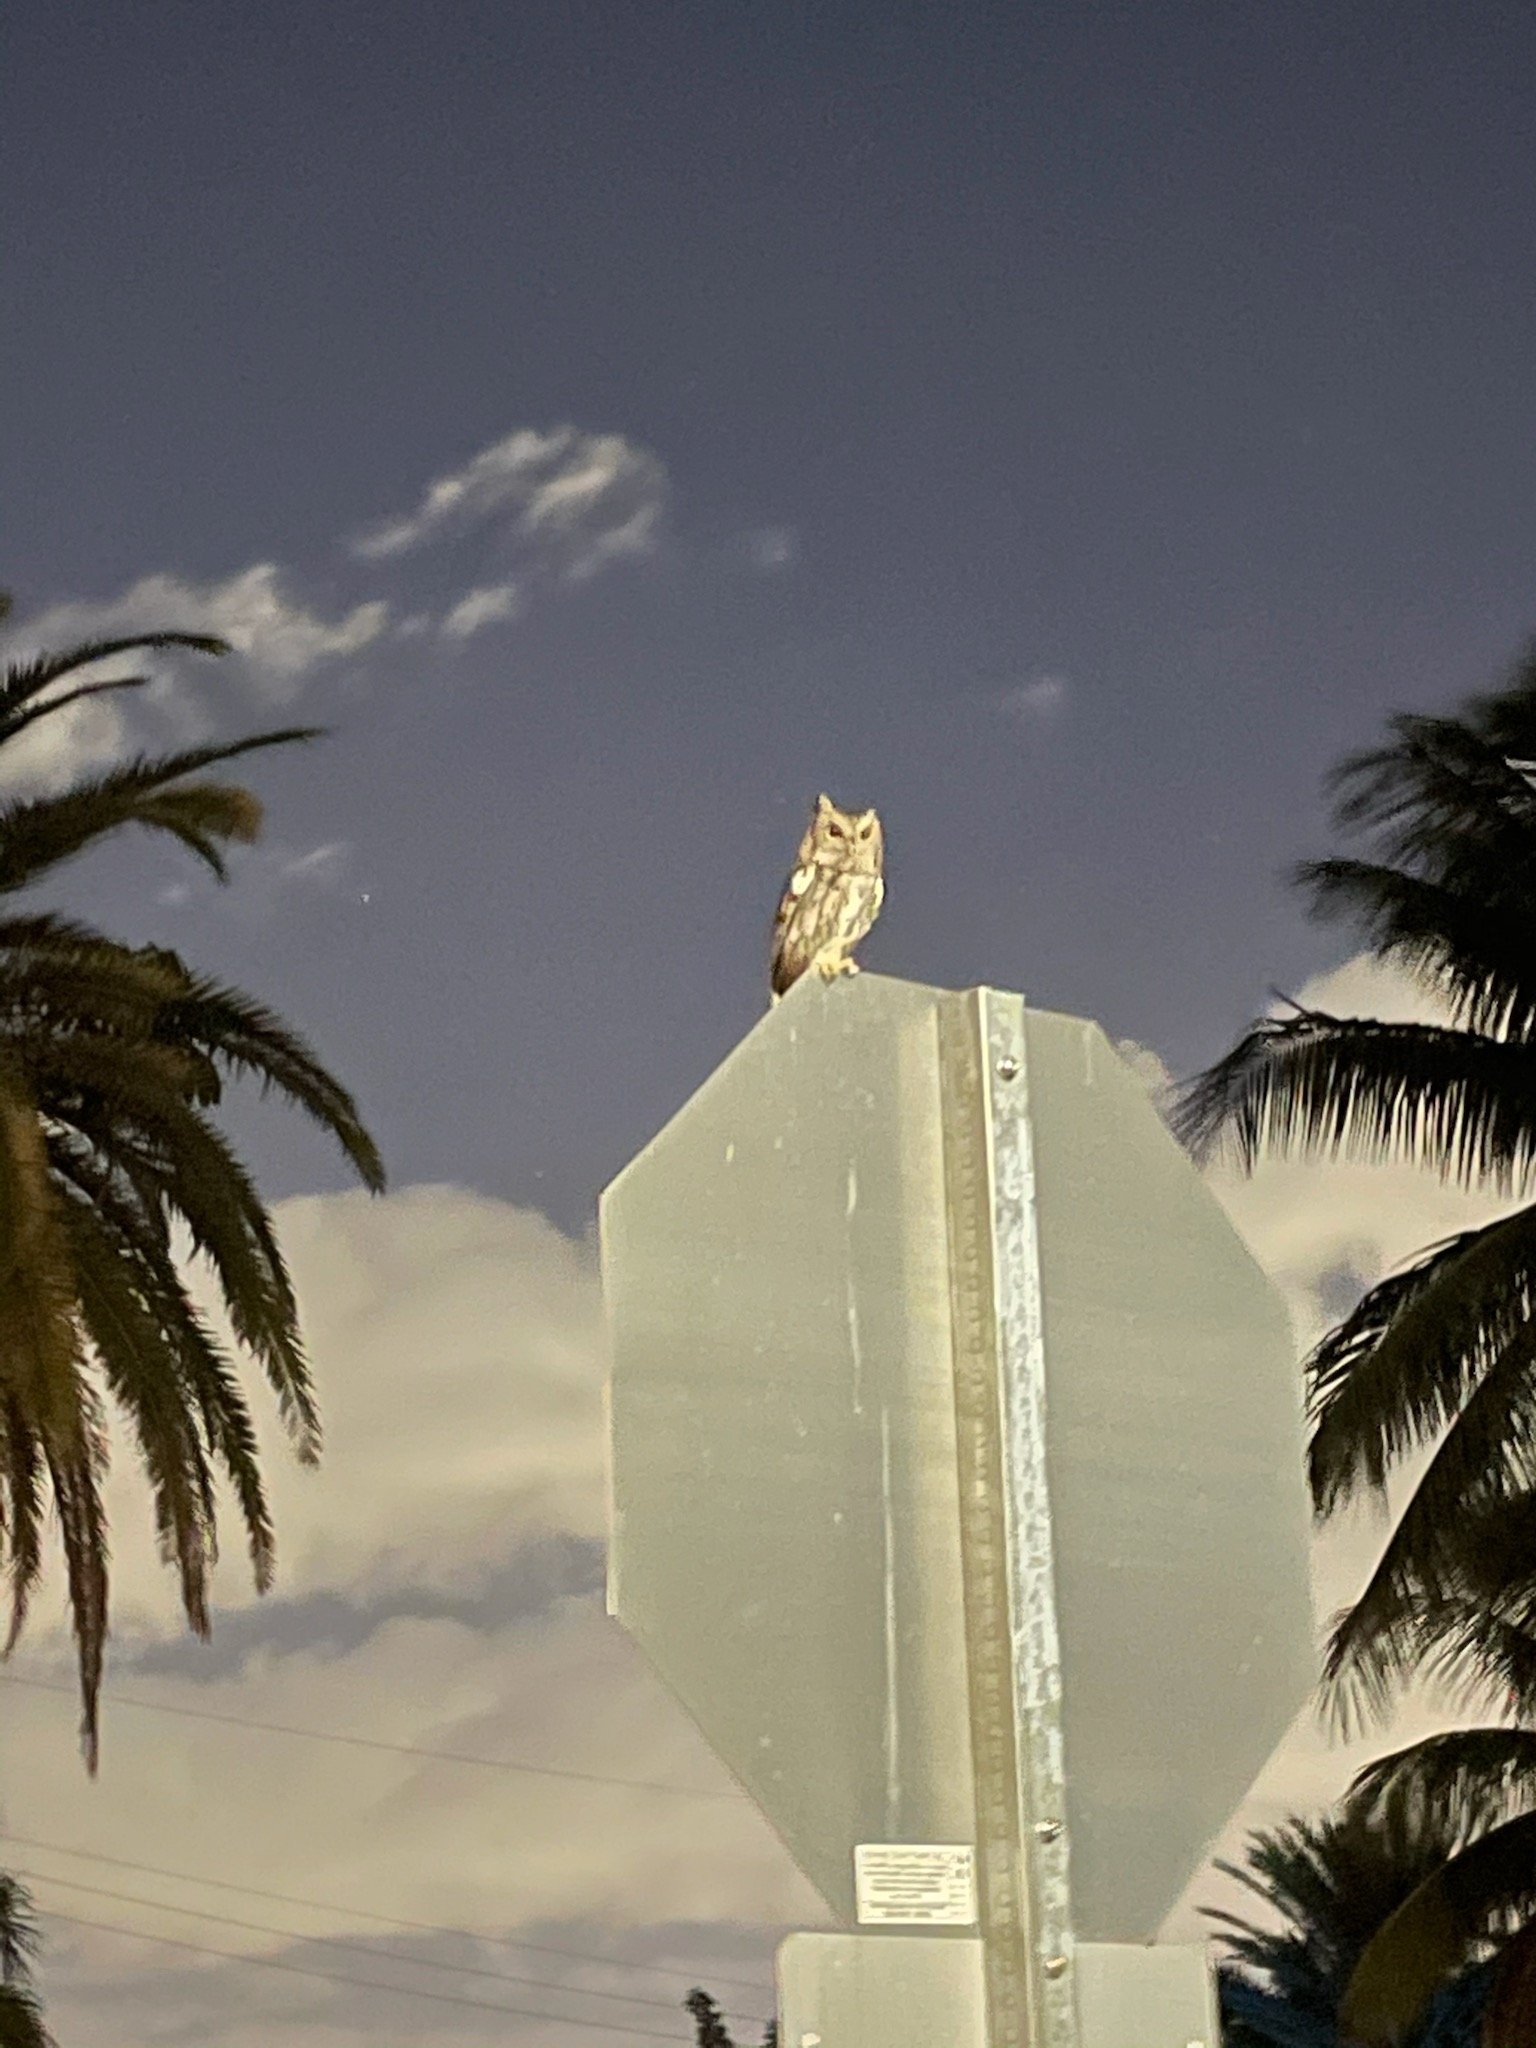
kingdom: Animalia
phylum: Chordata
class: Aves
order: Strigiformes
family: Strigidae
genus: Megascops
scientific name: Megascops asio
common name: Eastern screech-owl
